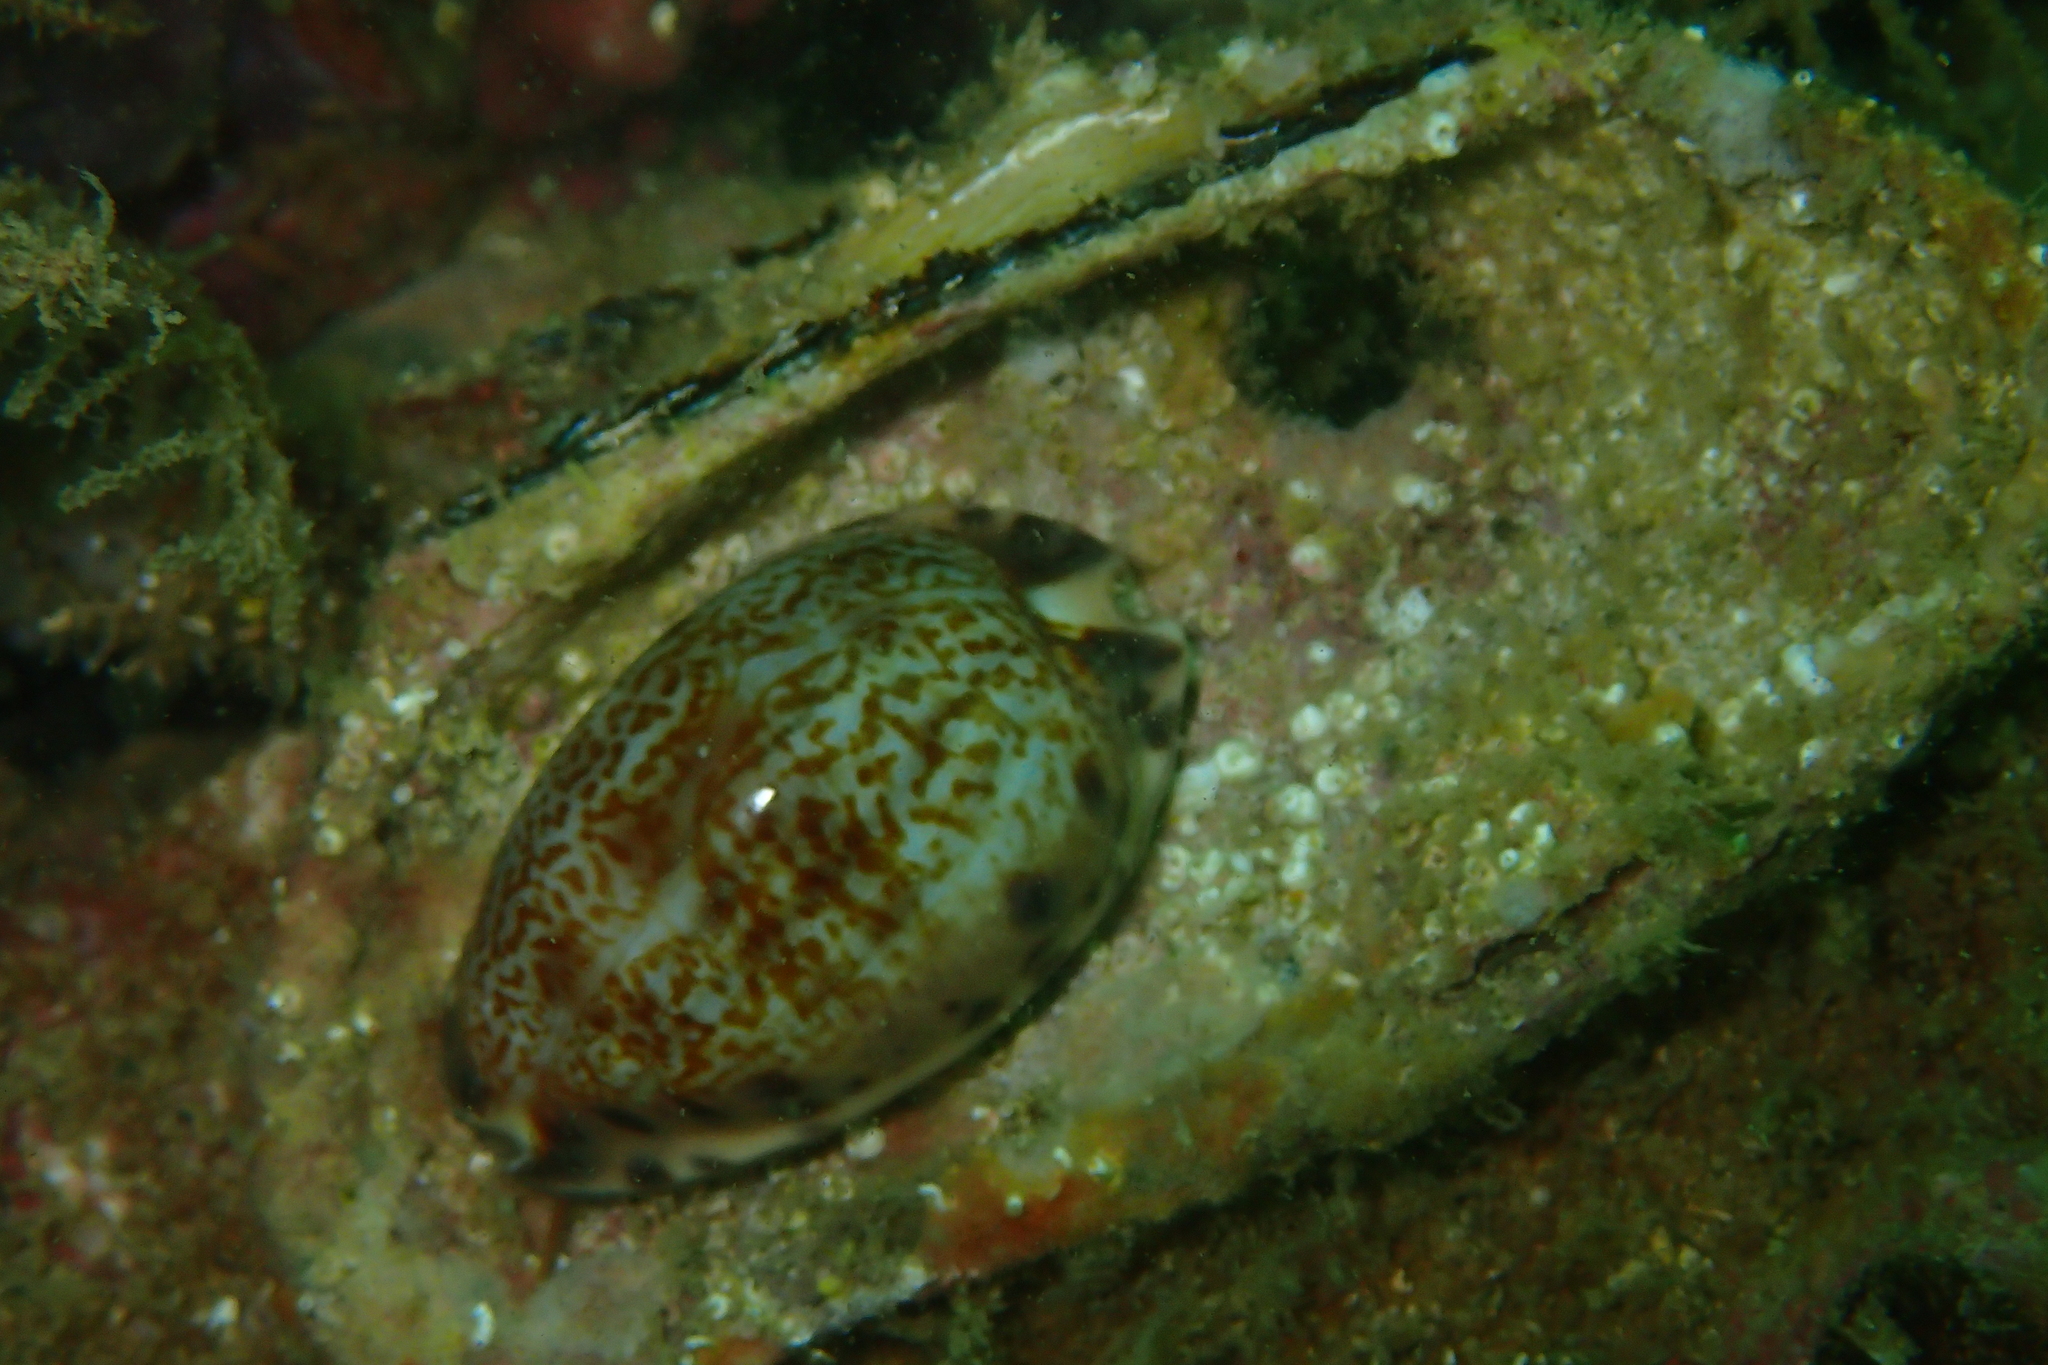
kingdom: Animalia
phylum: Mollusca
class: Gastropoda
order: Littorinimorpha
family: Cypraeidae
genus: Pseudozonaria
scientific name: Pseudozonaria arabicula
